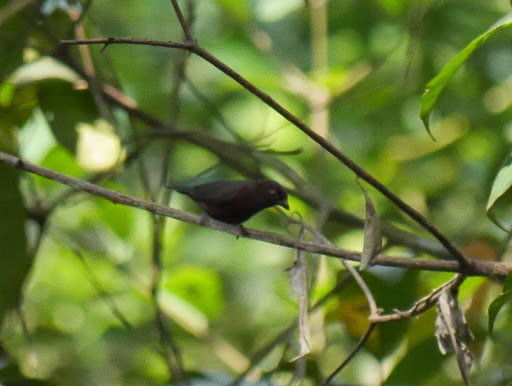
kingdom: Animalia
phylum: Chordata
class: Aves
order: Passeriformes
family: Estrildidae
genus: Nigrita
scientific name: Nigrita bicolor
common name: Chestnut-breasted nigrita
